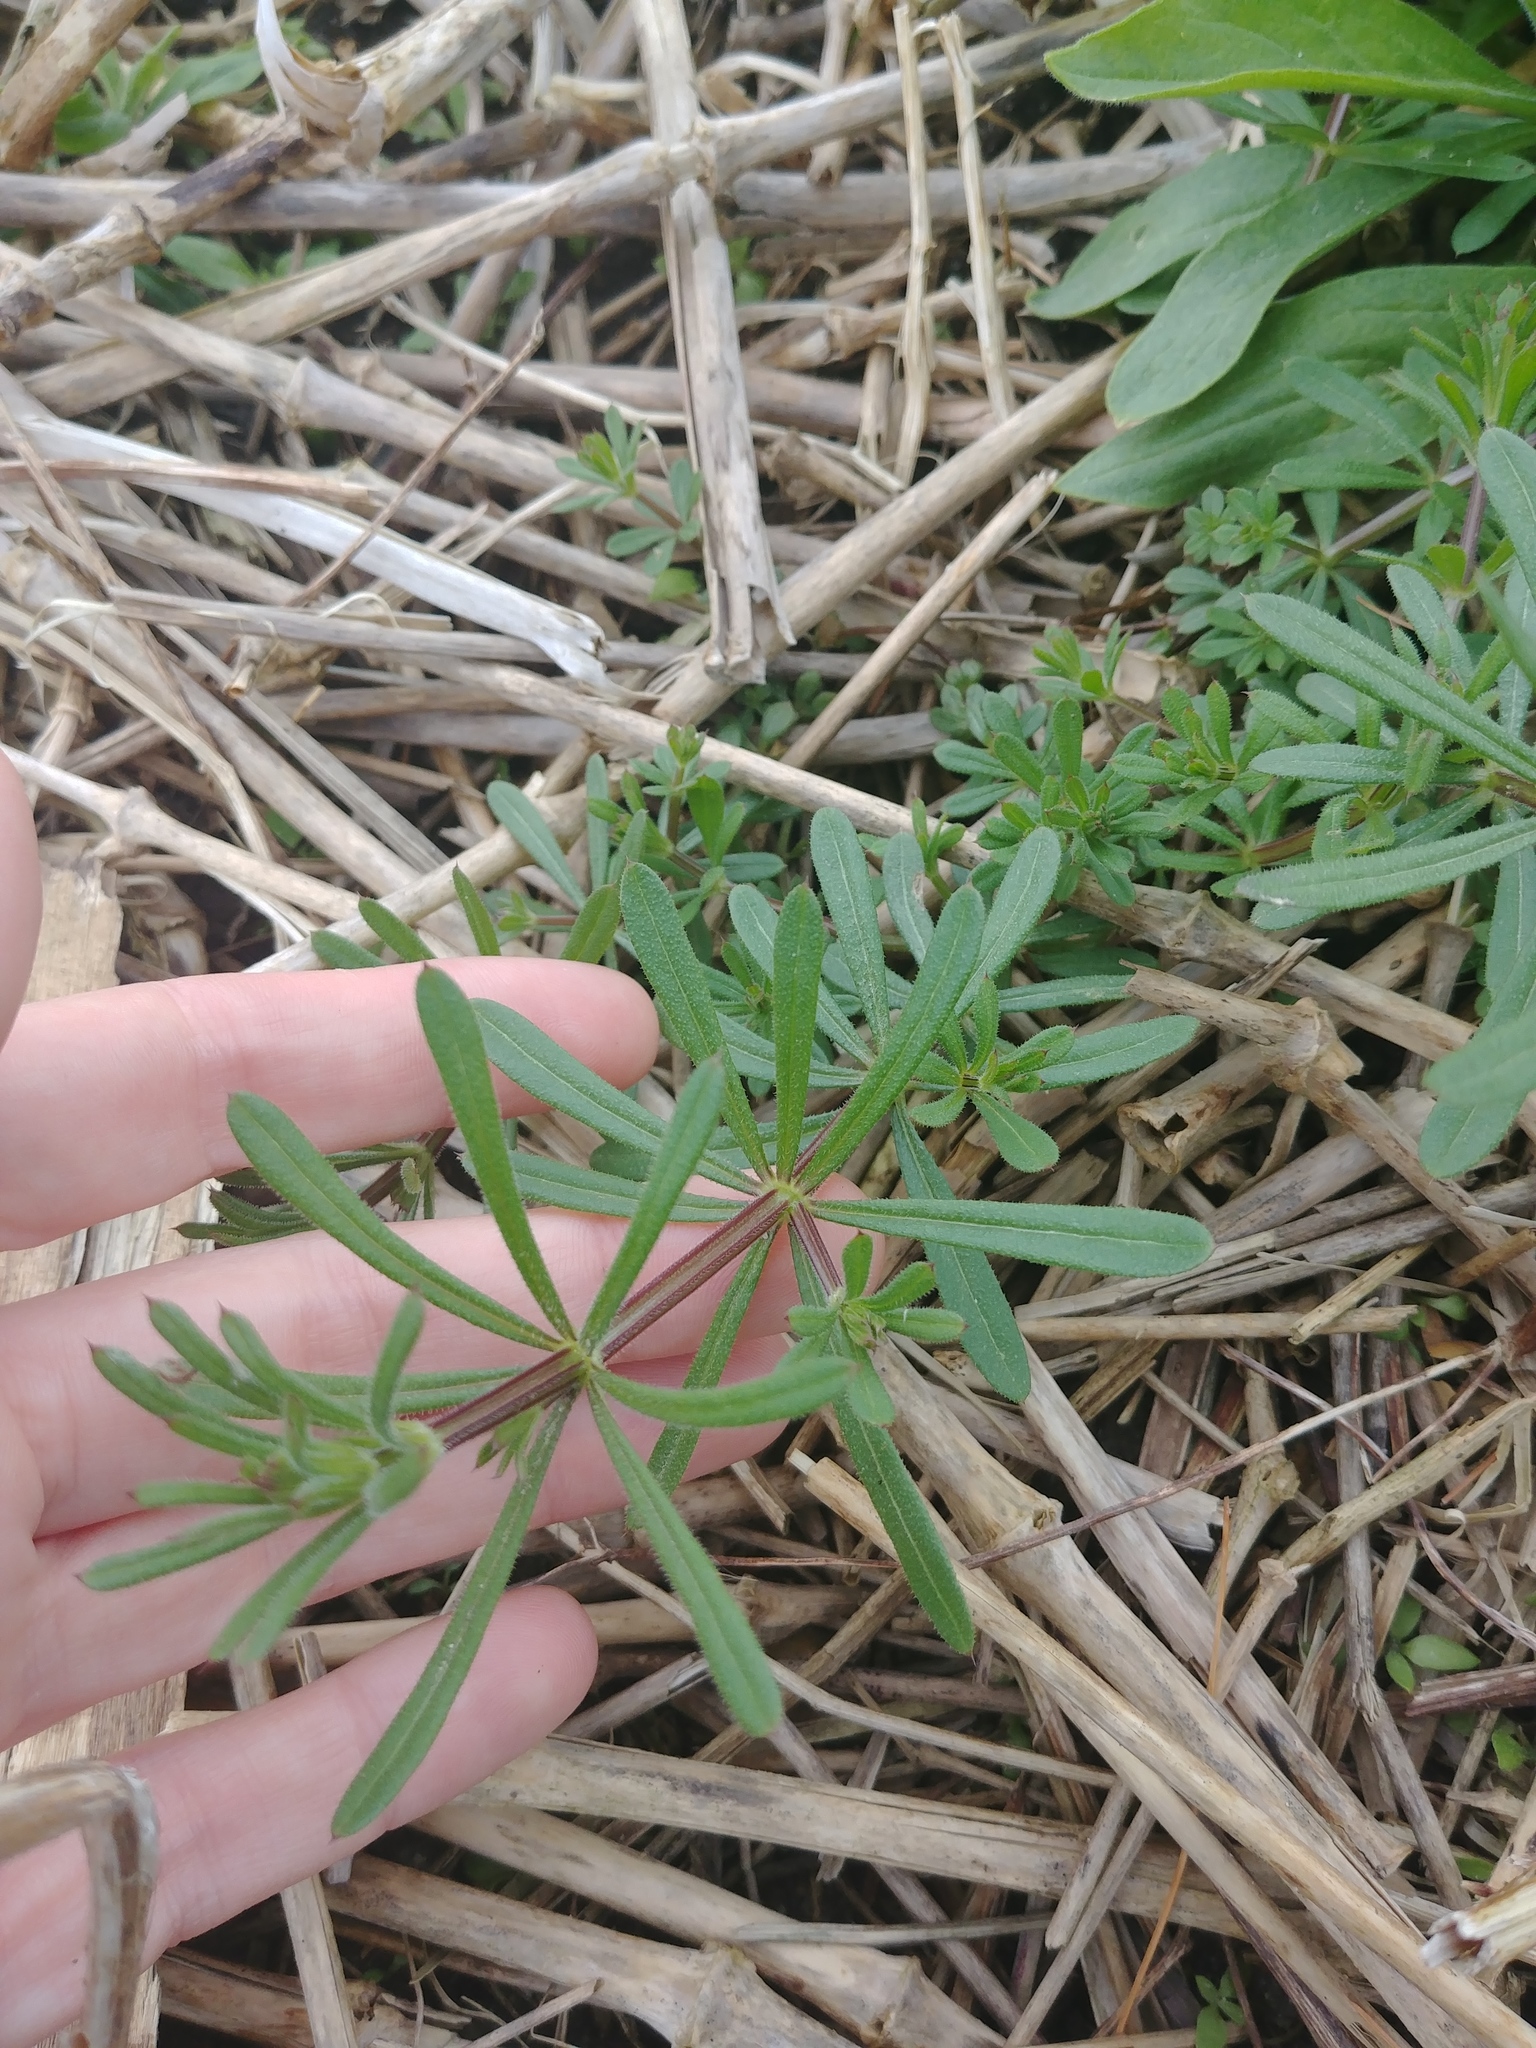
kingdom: Plantae
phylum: Tracheophyta
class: Magnoliopsida
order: Gentianales
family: Rubiaceae
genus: Galium
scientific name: Galium aparine
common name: Cleavers
